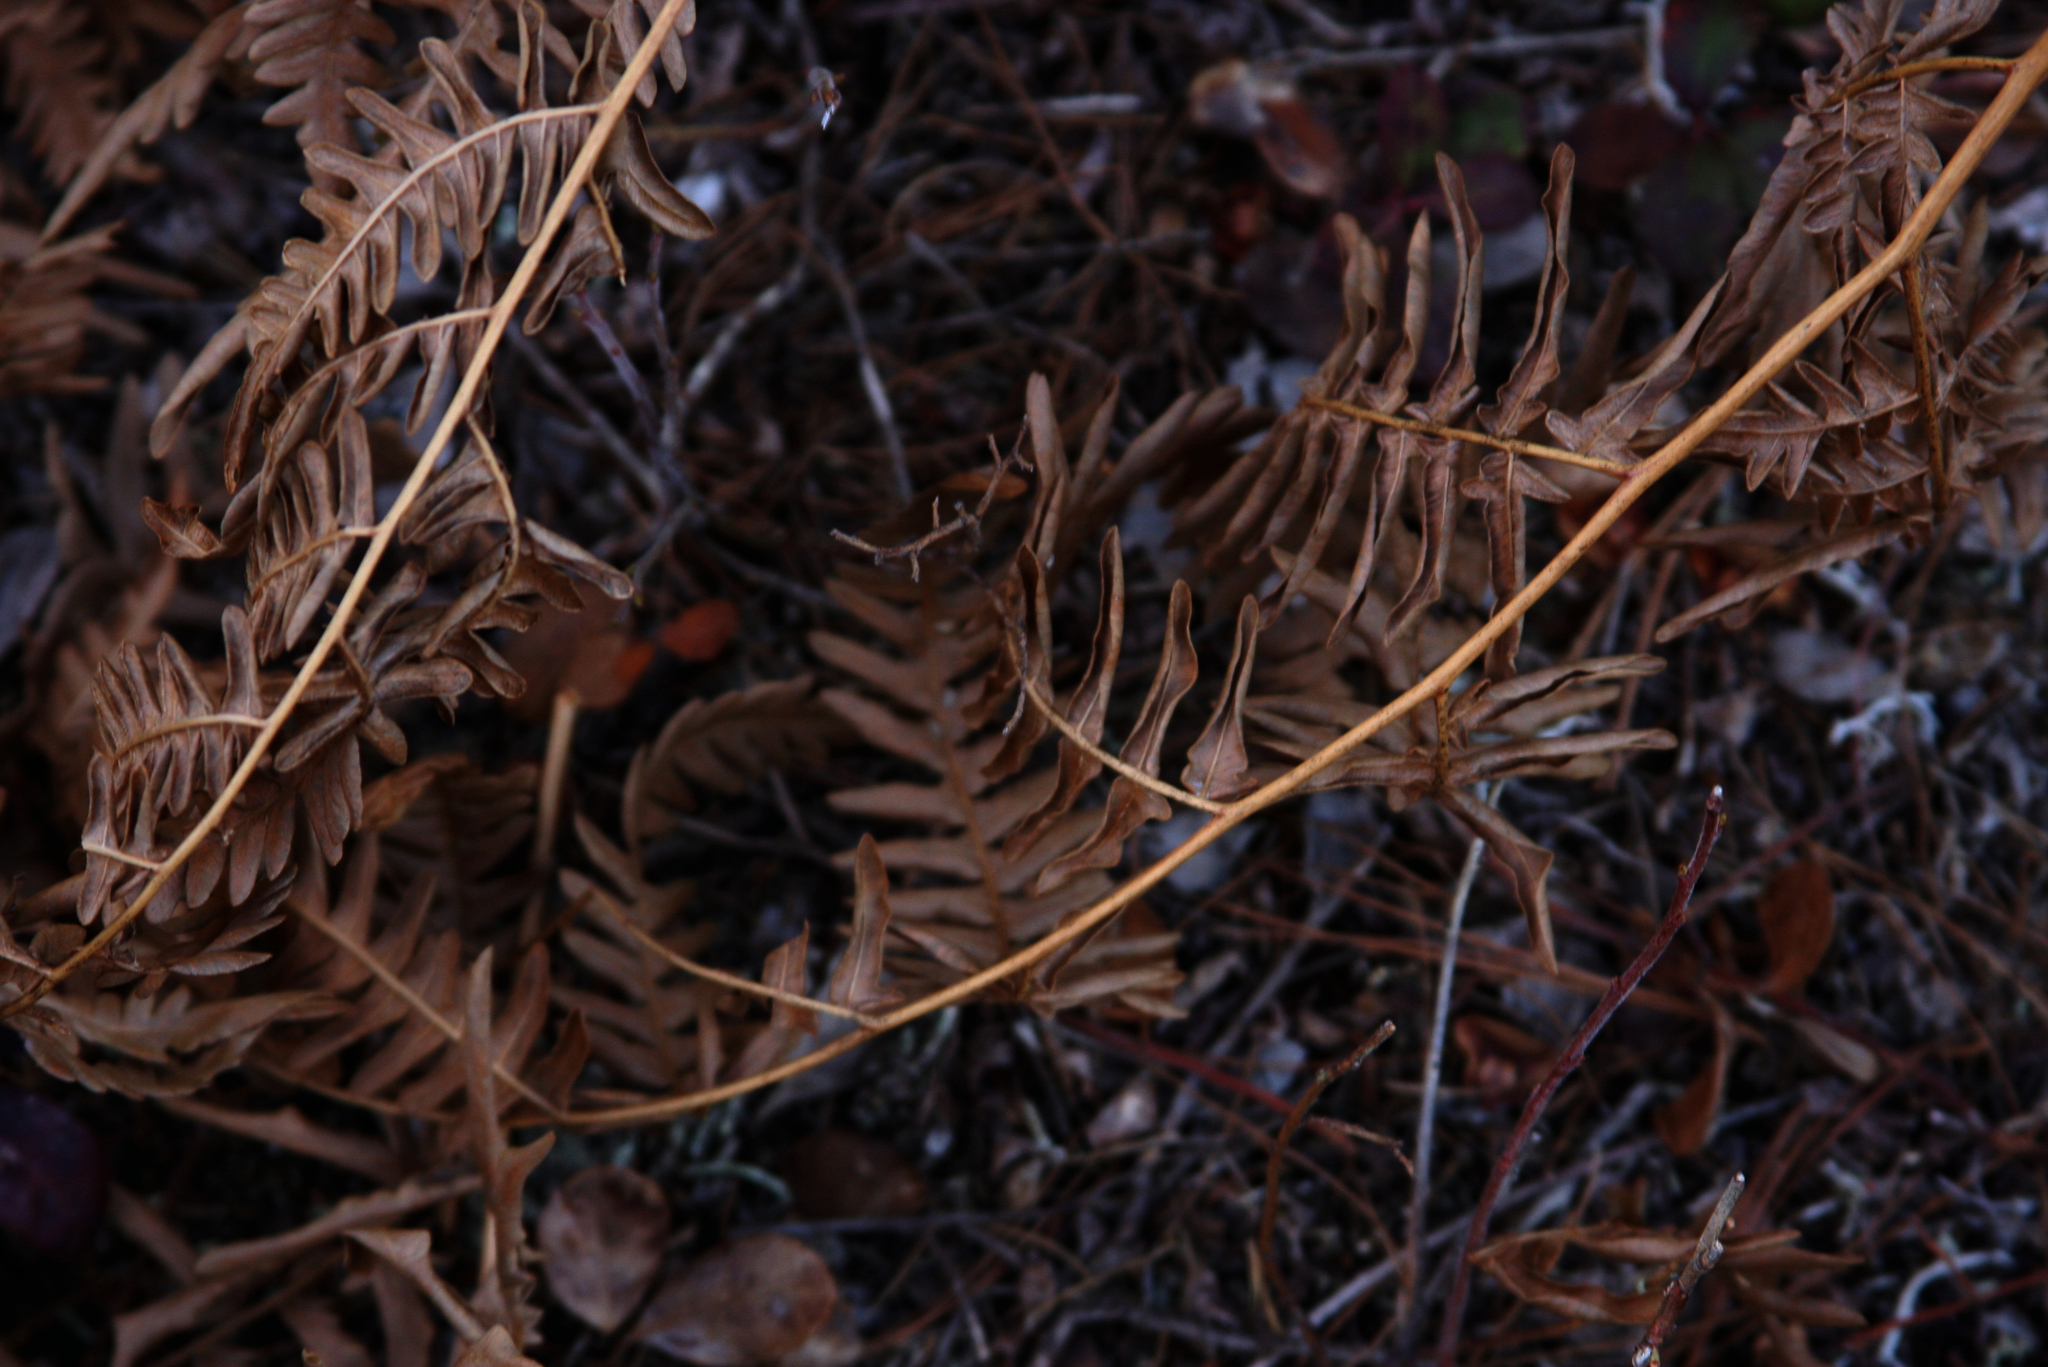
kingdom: Plantae
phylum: Tracheophyta
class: Polypodiopsida
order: Polypodiales
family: Dennstaedtiaceae
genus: Pteridium
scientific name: Pteridium aquilinum
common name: Bracken
